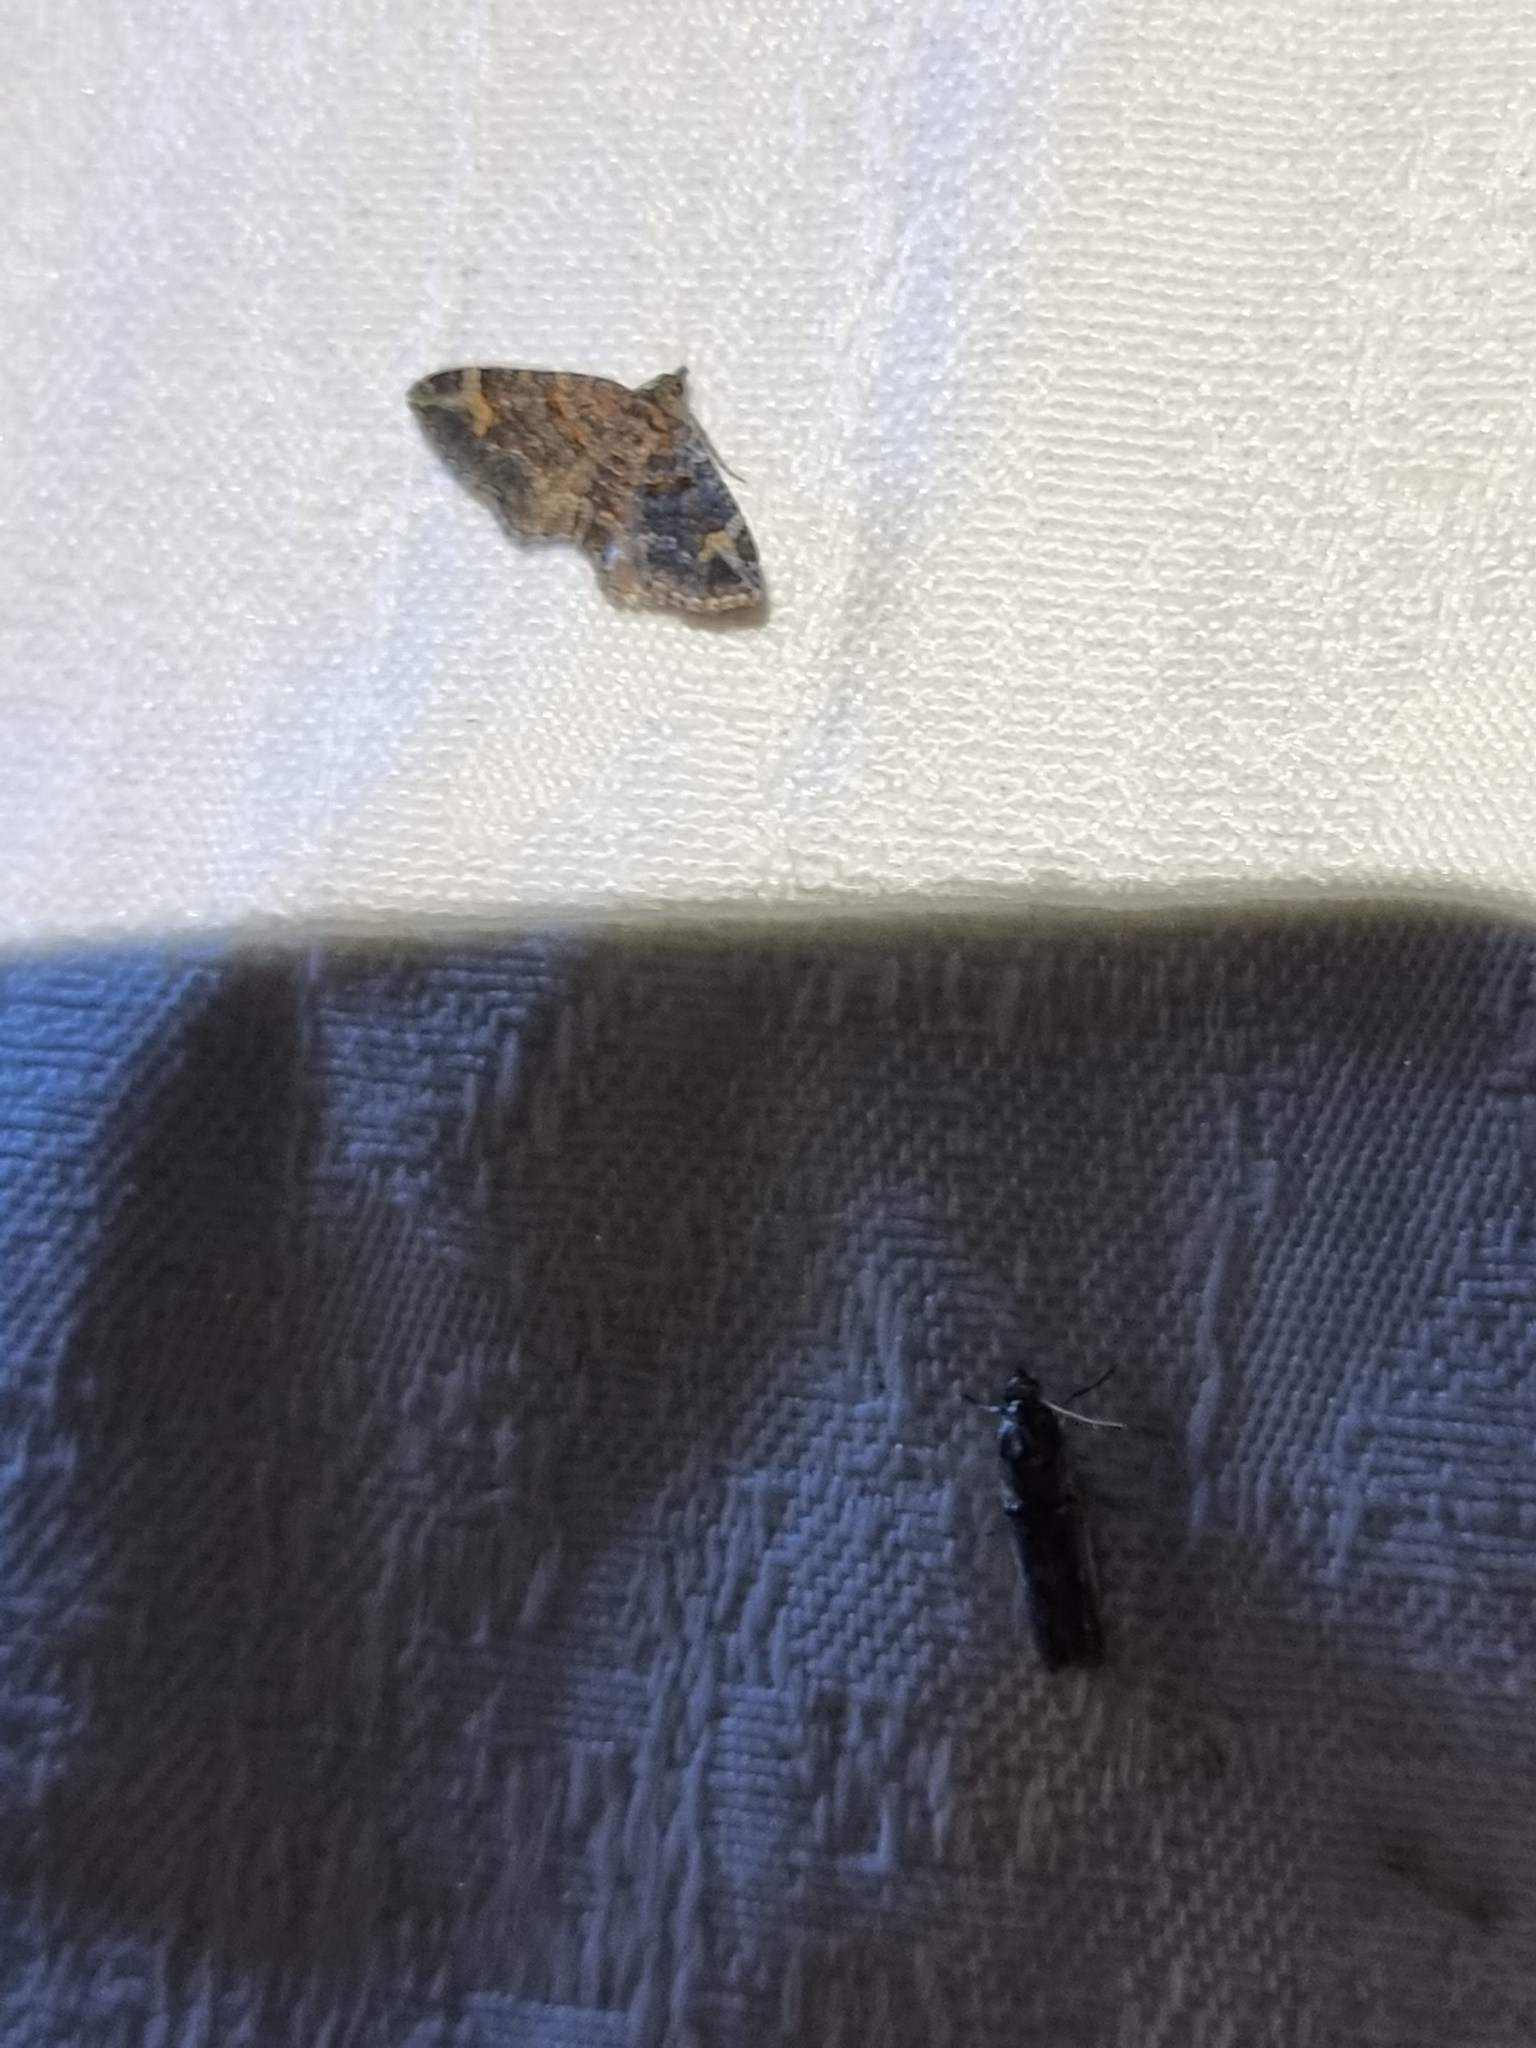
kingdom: Animalia
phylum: Arthropoda
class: Insecta
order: Lepidoptera
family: Geometridae
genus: Epyaxa
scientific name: Epyaxa sodaliata
